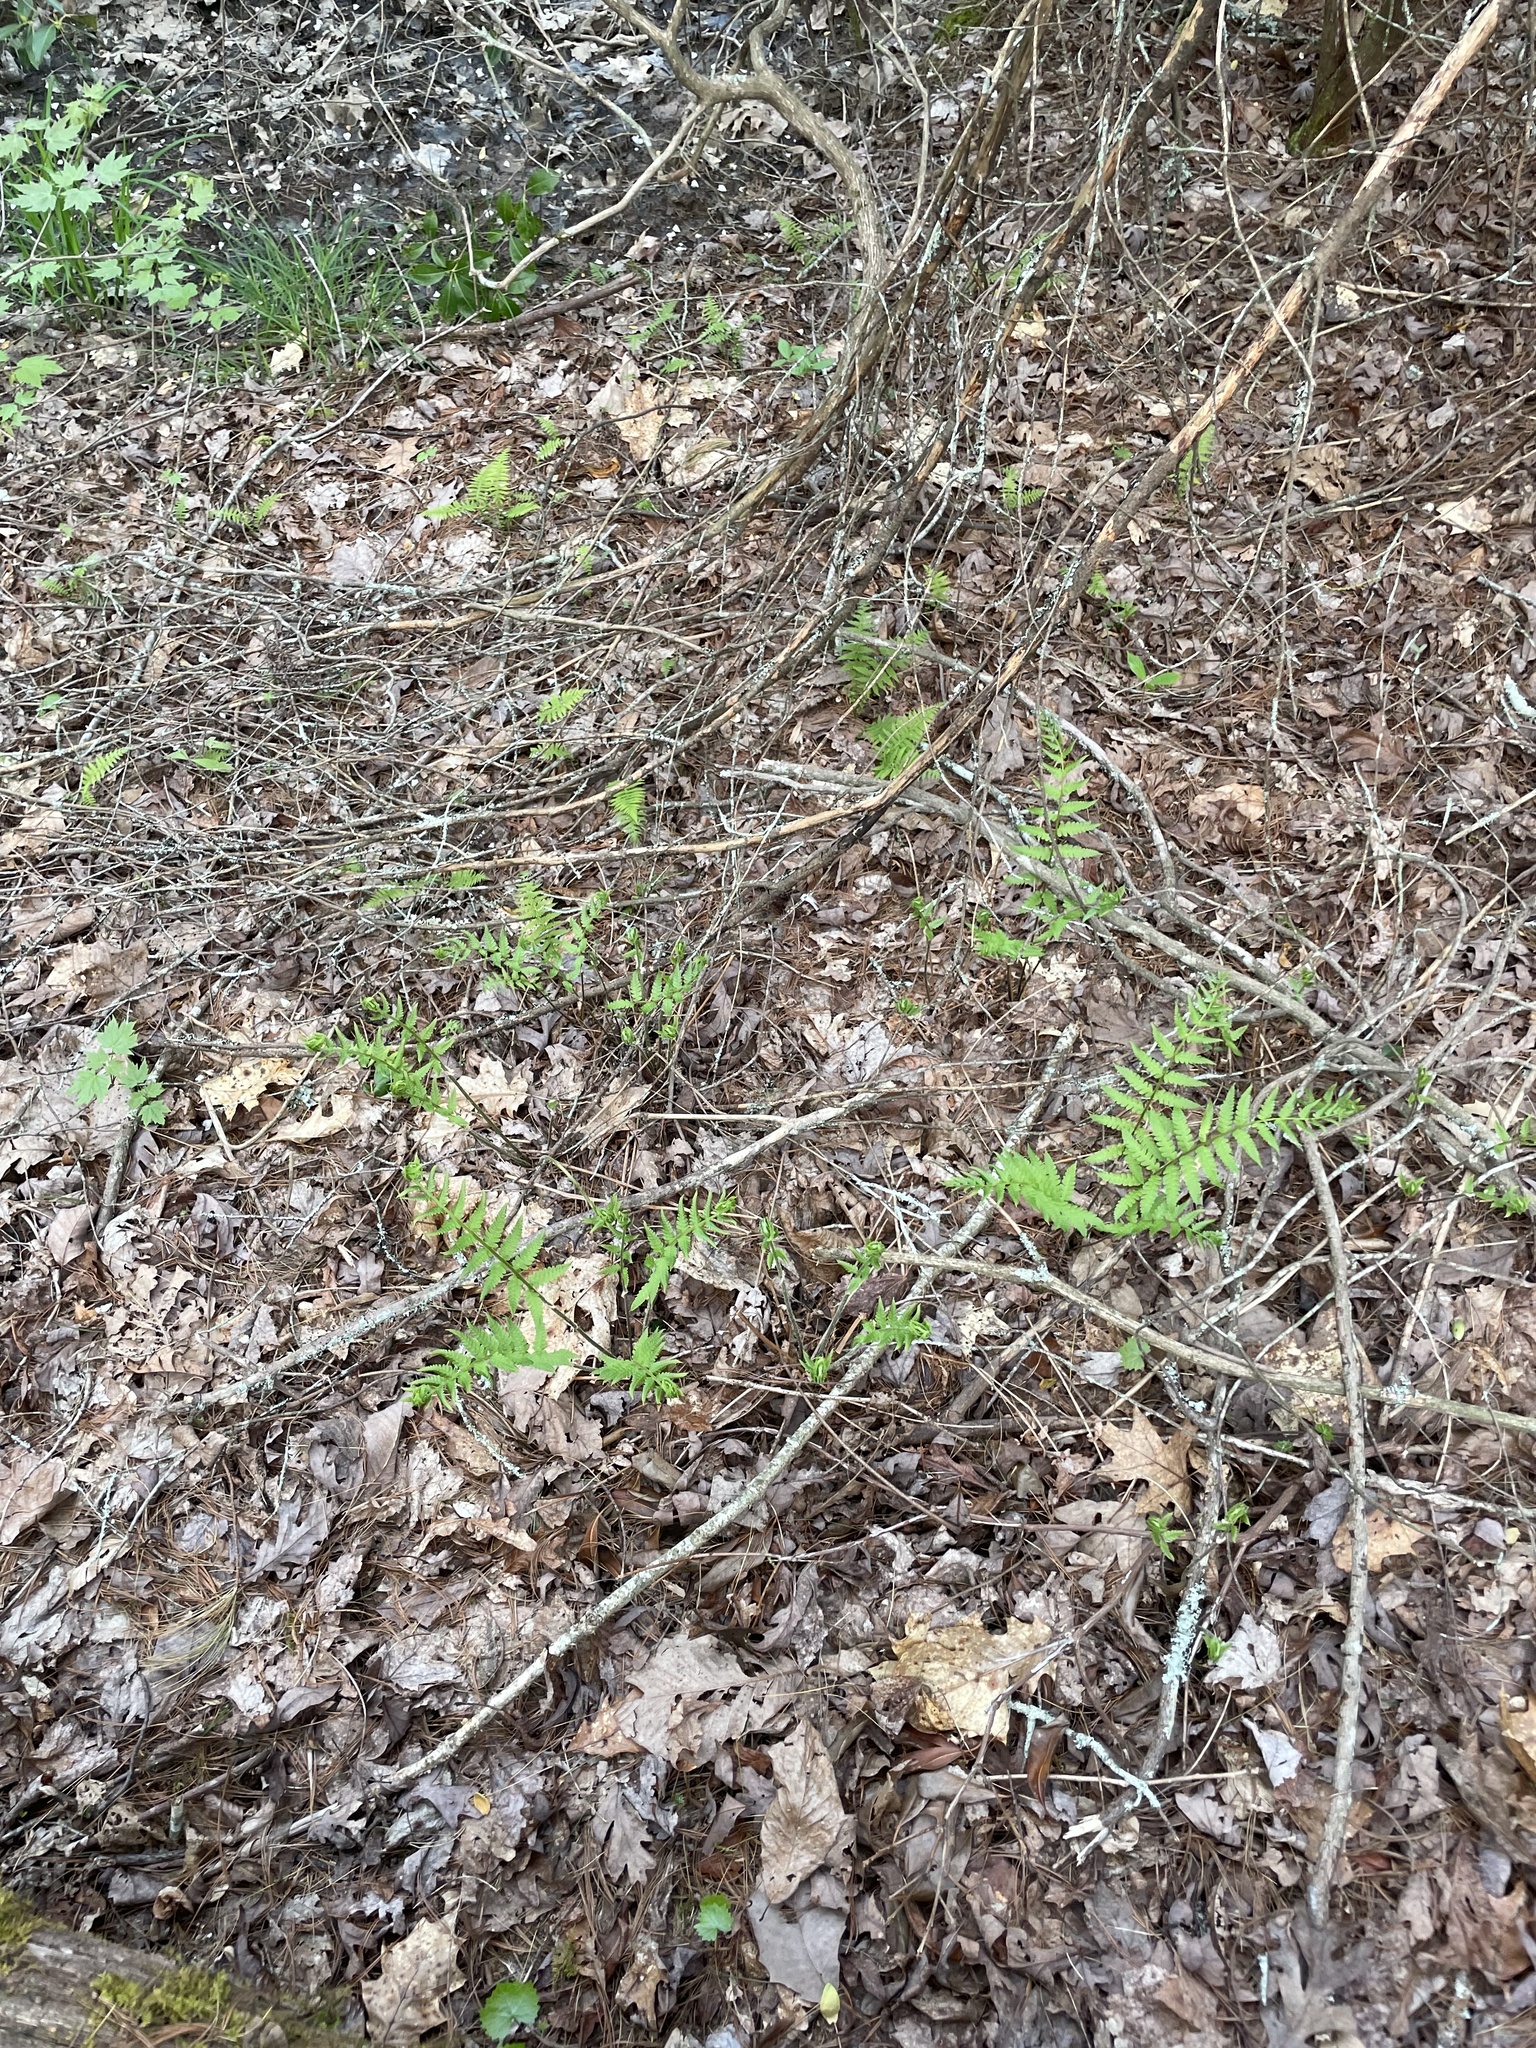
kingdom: Plantae
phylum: Tracheophyta
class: Polypodiopsida
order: Osmundales
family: Osmundaceae
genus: Osmundastrum
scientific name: Osmundastrum cinnamomeum
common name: Cinnamon fern
